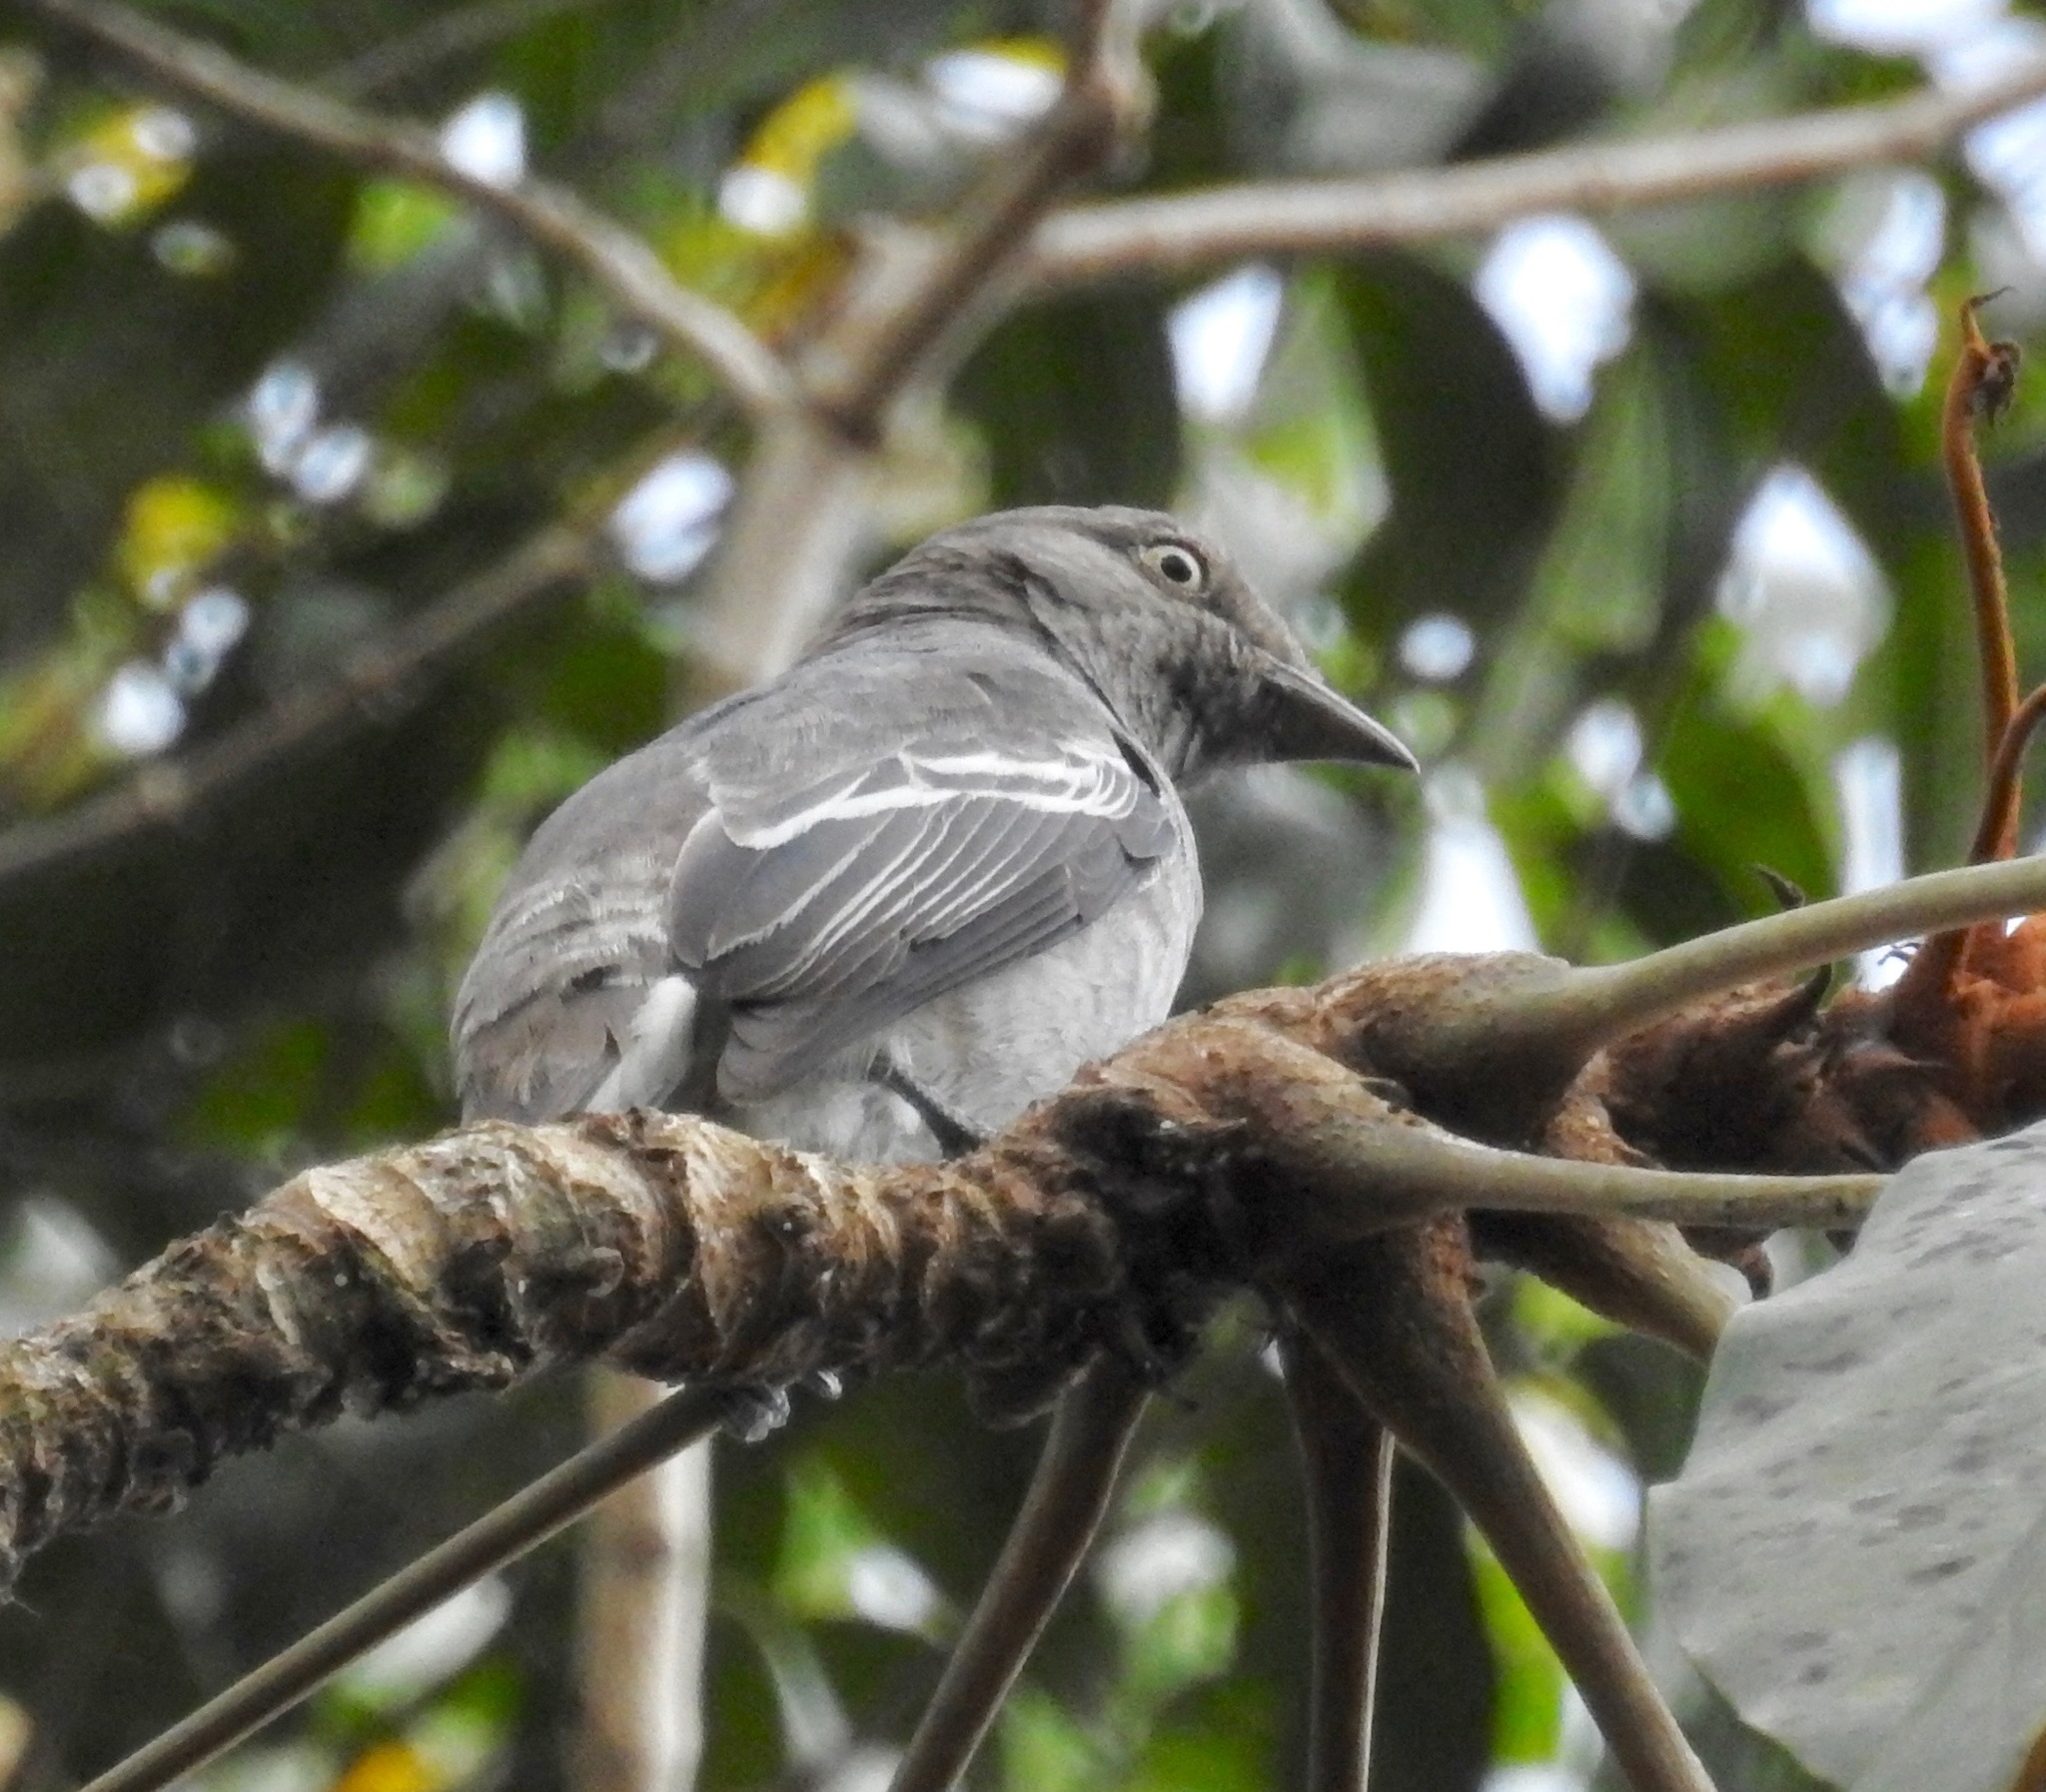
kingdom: Animalia
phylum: Chordata
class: Aves
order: Passeriformes
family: Cotingidae
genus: Xipholena
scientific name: Xipholena atropurpurea
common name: White-winged cotinga
